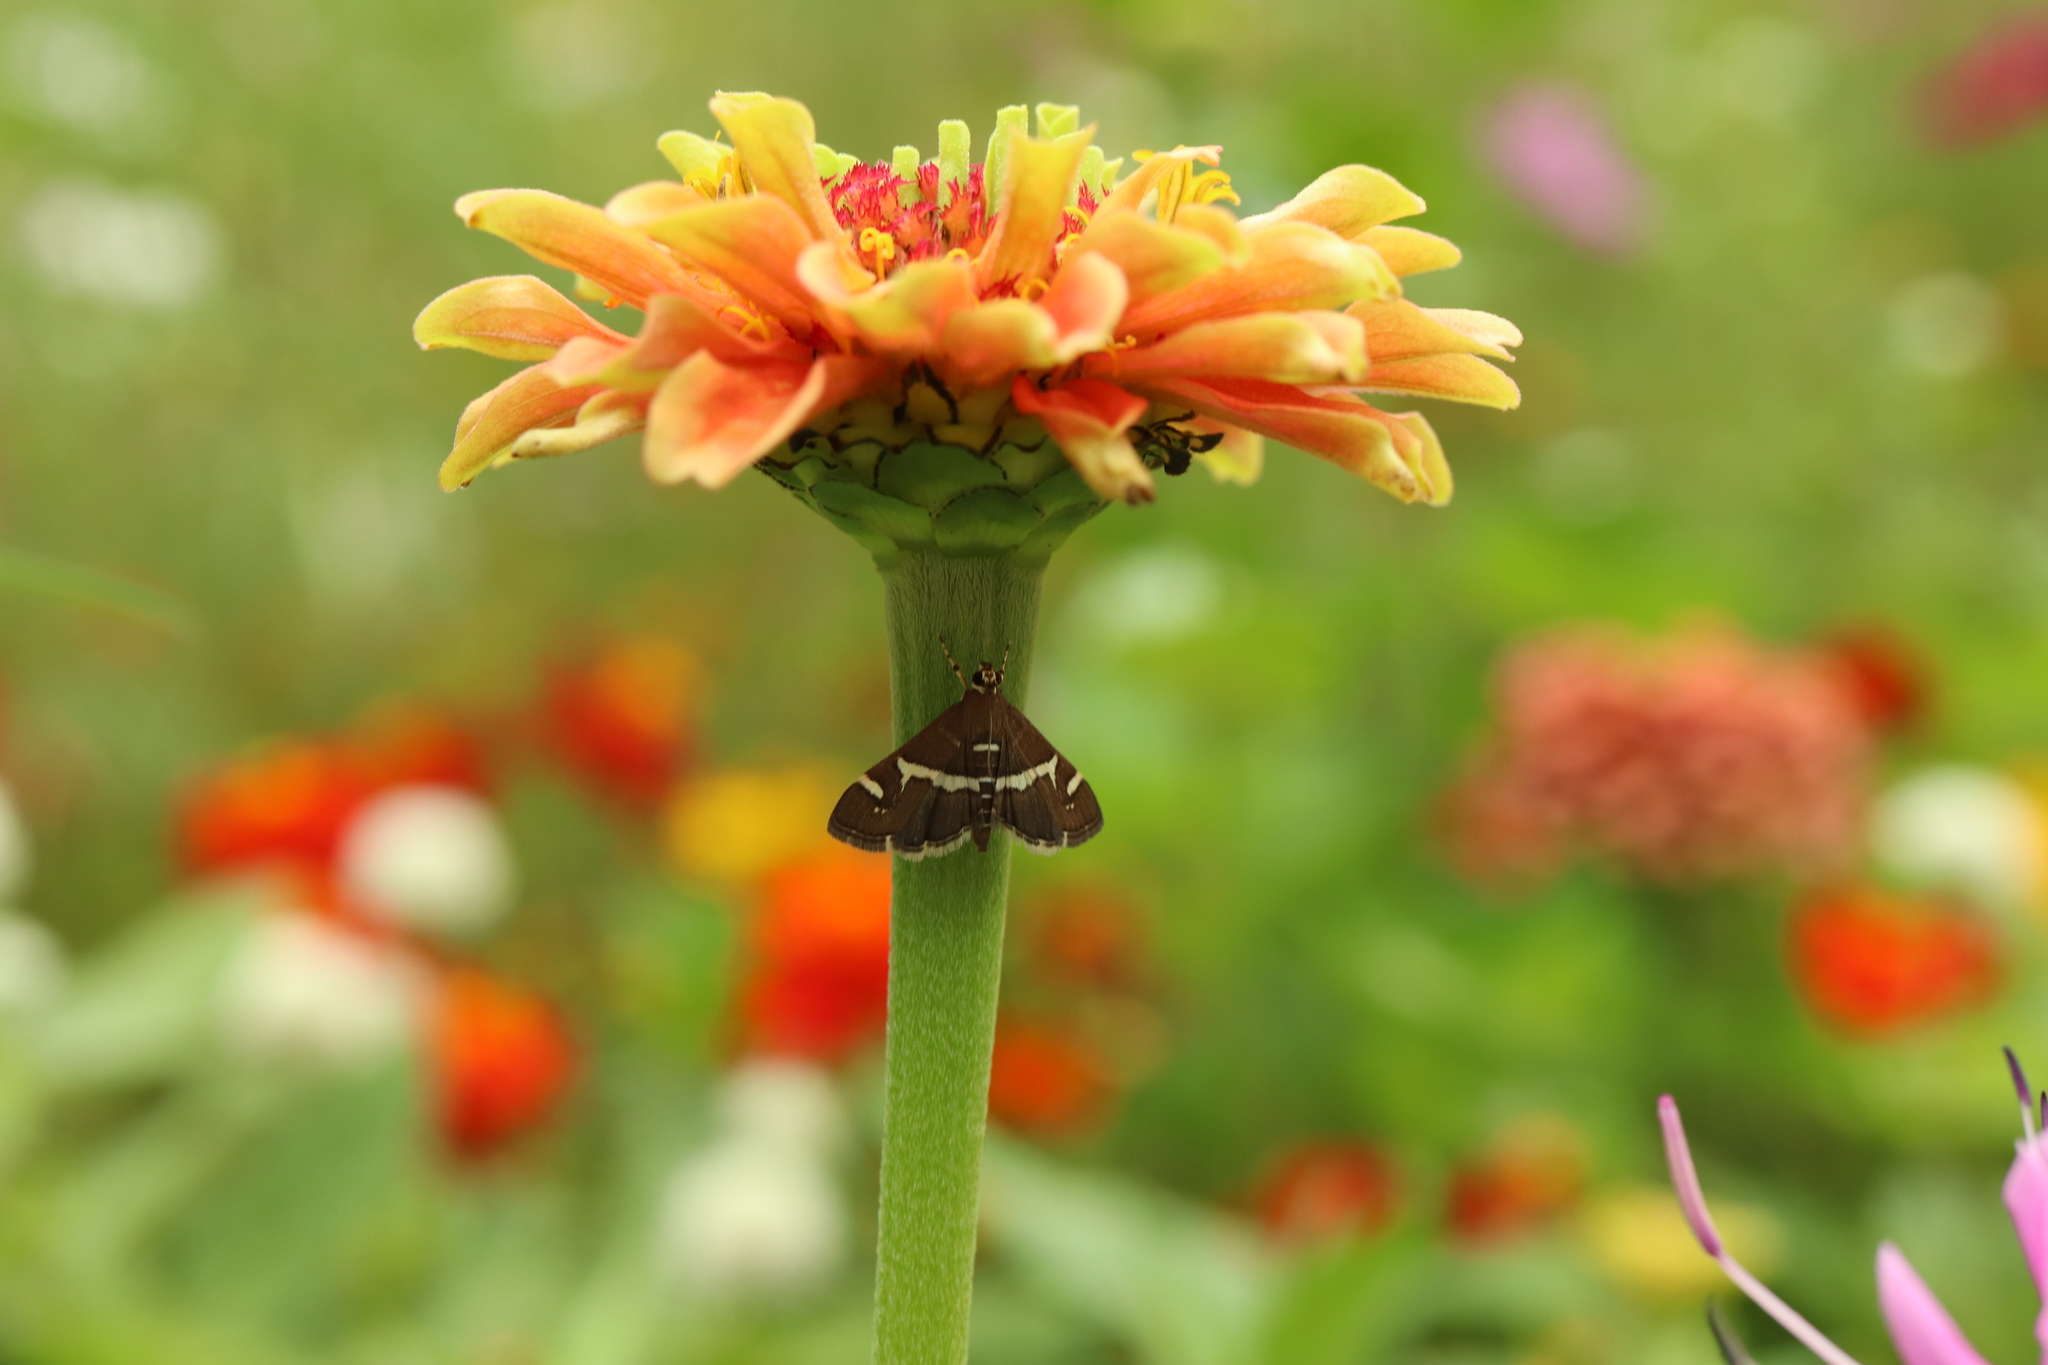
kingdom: Animalia
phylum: Arthropoda
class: Insecta
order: Lepidoptera
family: Crambidae
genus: Spoladea
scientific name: Spoladea recurvalis
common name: Beet webworm moth
